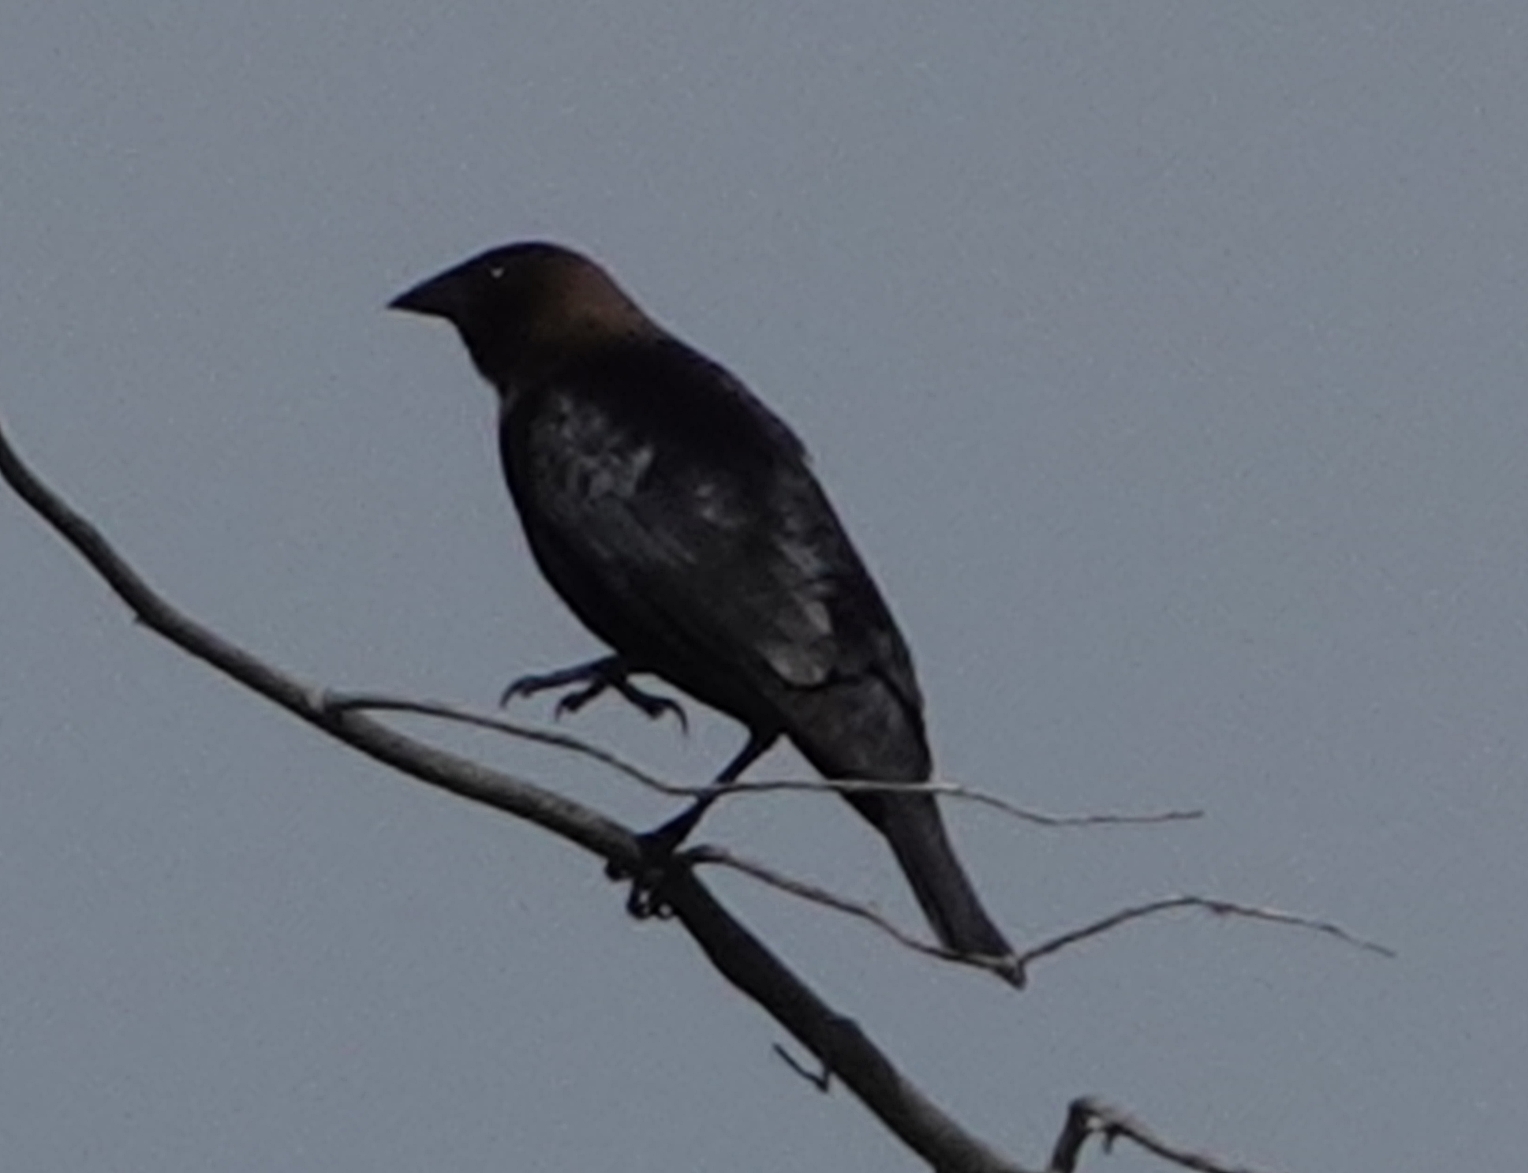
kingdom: Animalia
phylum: Chordata
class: Aves
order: Passeriformes
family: Icteridae
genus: Molothrus
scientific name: Molothrus ater
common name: Brown-headed cowbird
